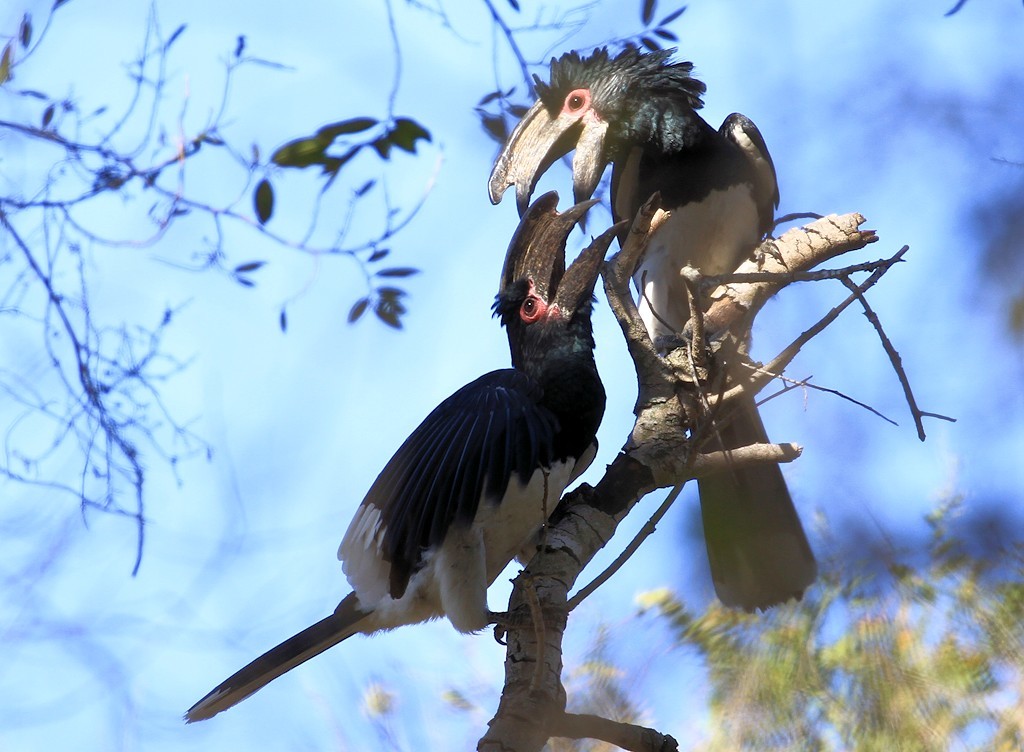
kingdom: Animalia
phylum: Chordata
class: Aves
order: Bucerotiformes
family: Bucerotidae
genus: Bycanistes
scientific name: Bycanistes bucinator
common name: Trumpeter hornbill
